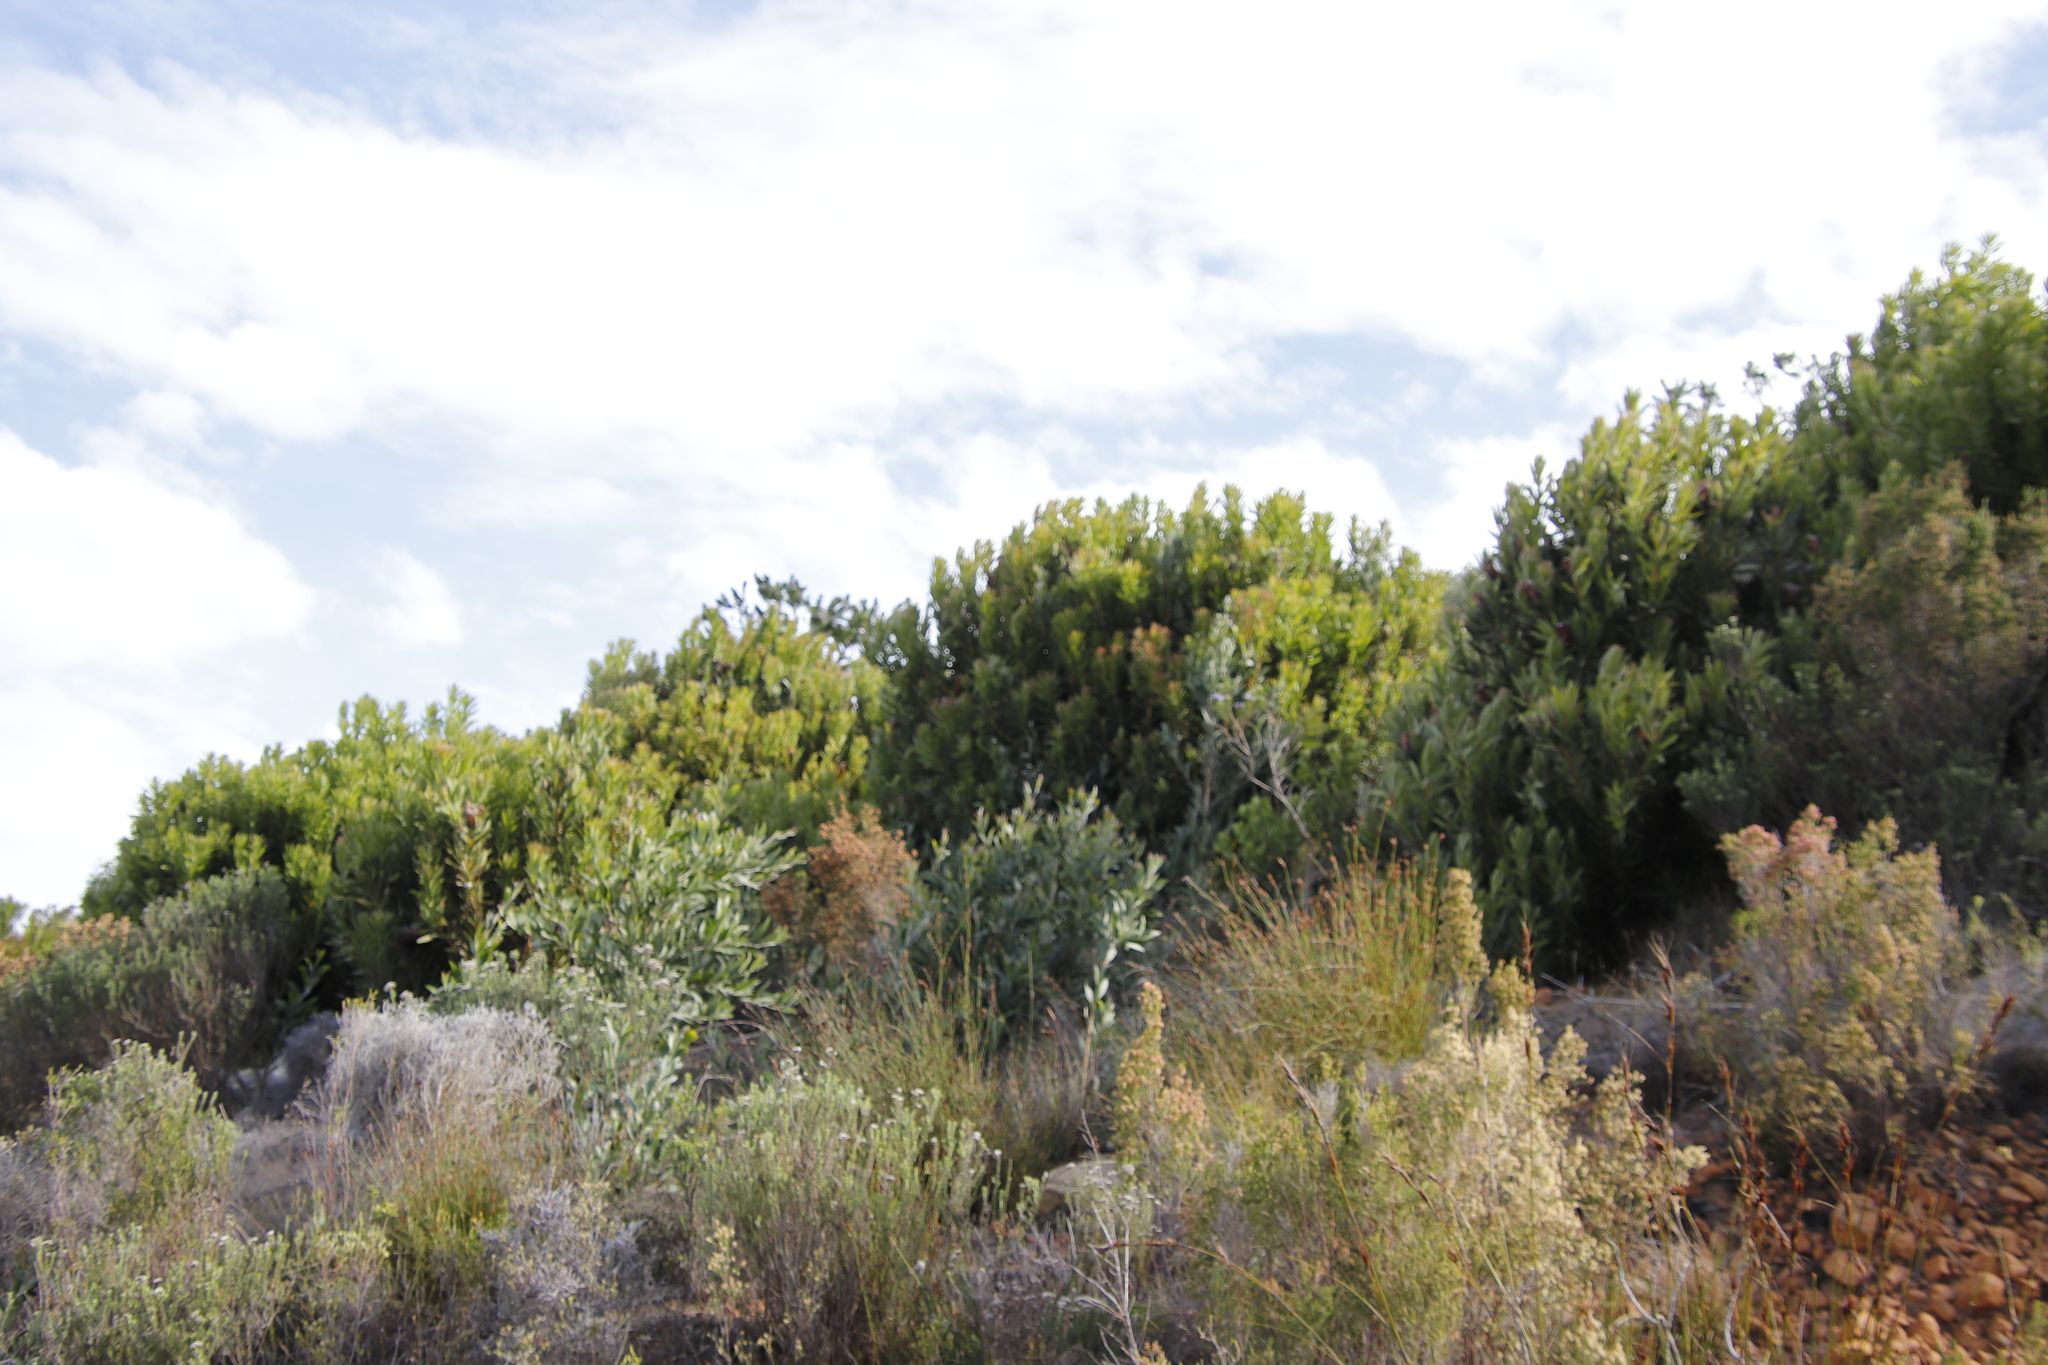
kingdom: Plantae
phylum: Tracheophyta
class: Magnoliopsida
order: Proteales
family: Proteaceae
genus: Protea
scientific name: Protea lepidocarpodendron
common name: Black-bearded protea
